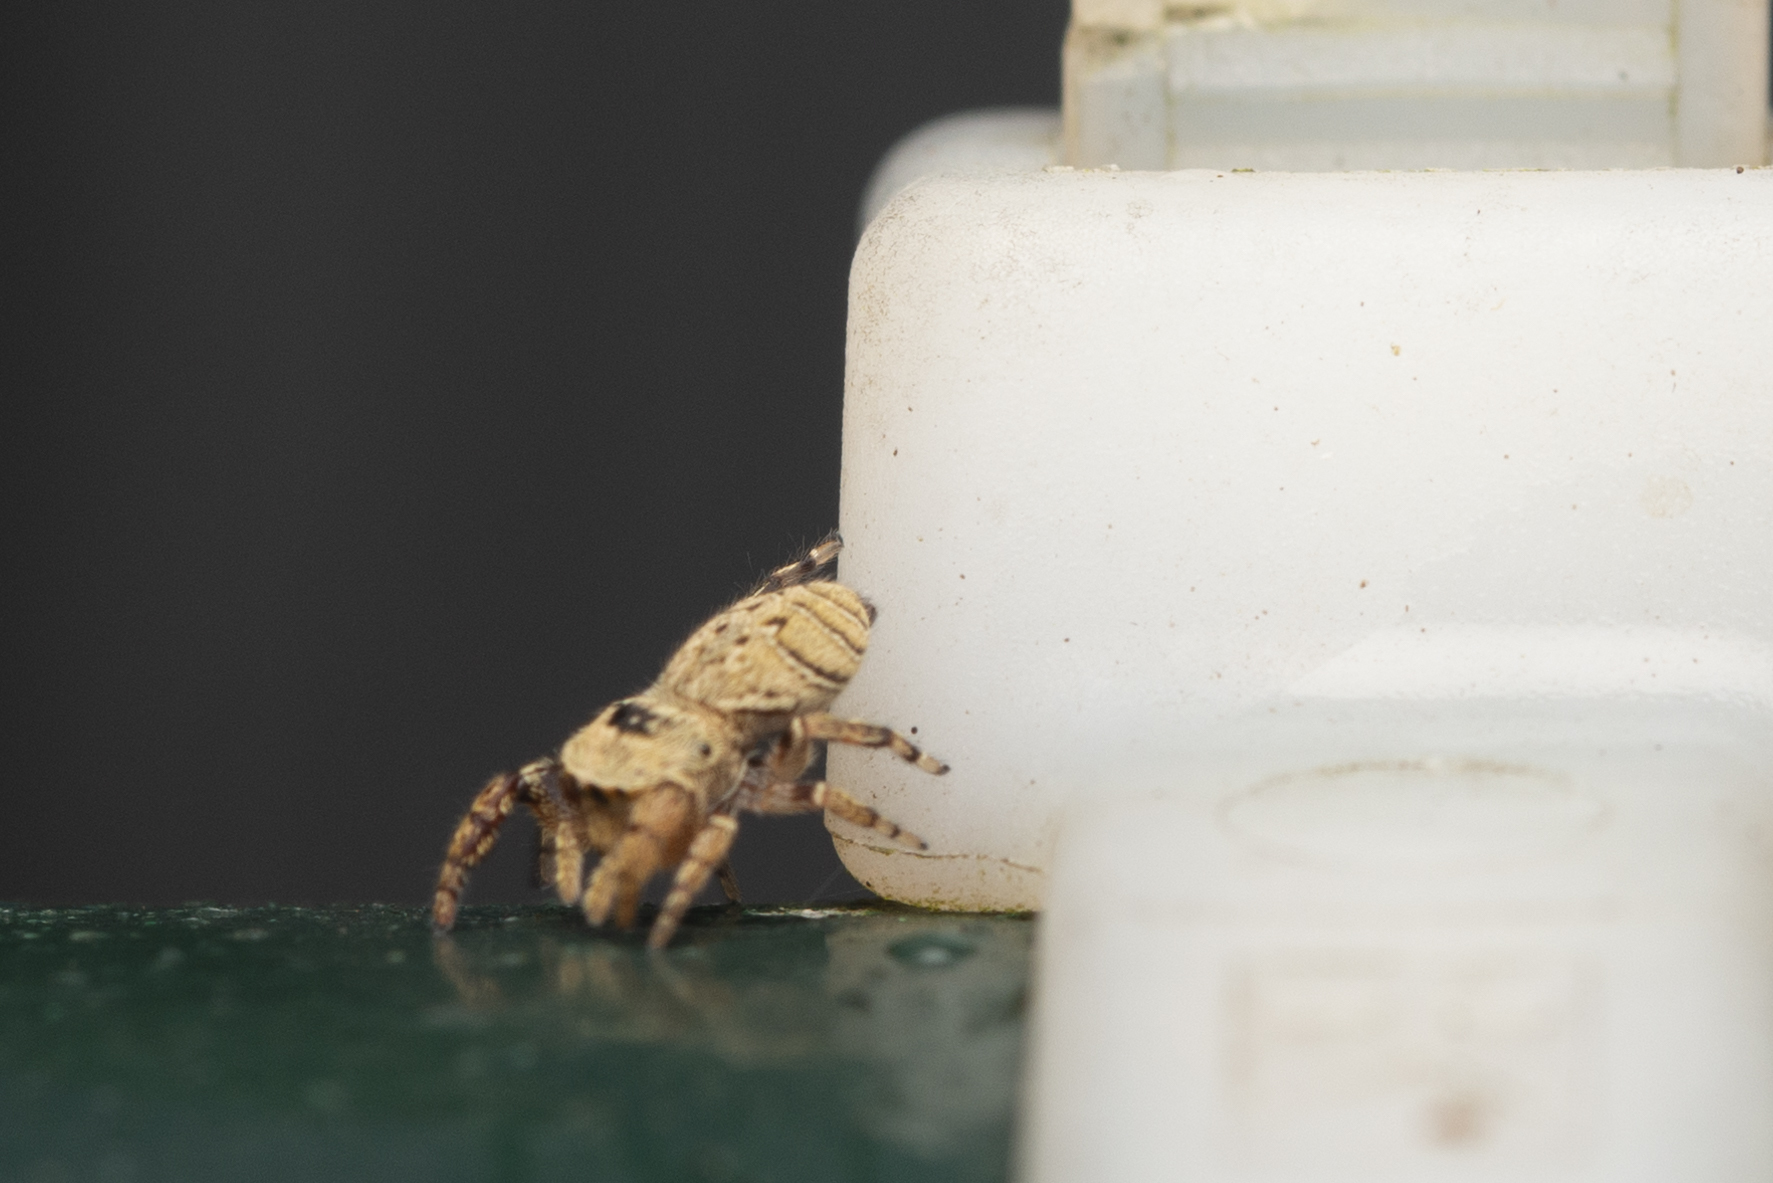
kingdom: Animalia
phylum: Arthropoda
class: Arachnida
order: Araneae
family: Salticidae
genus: Rhene
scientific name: Rhene flavicomans
